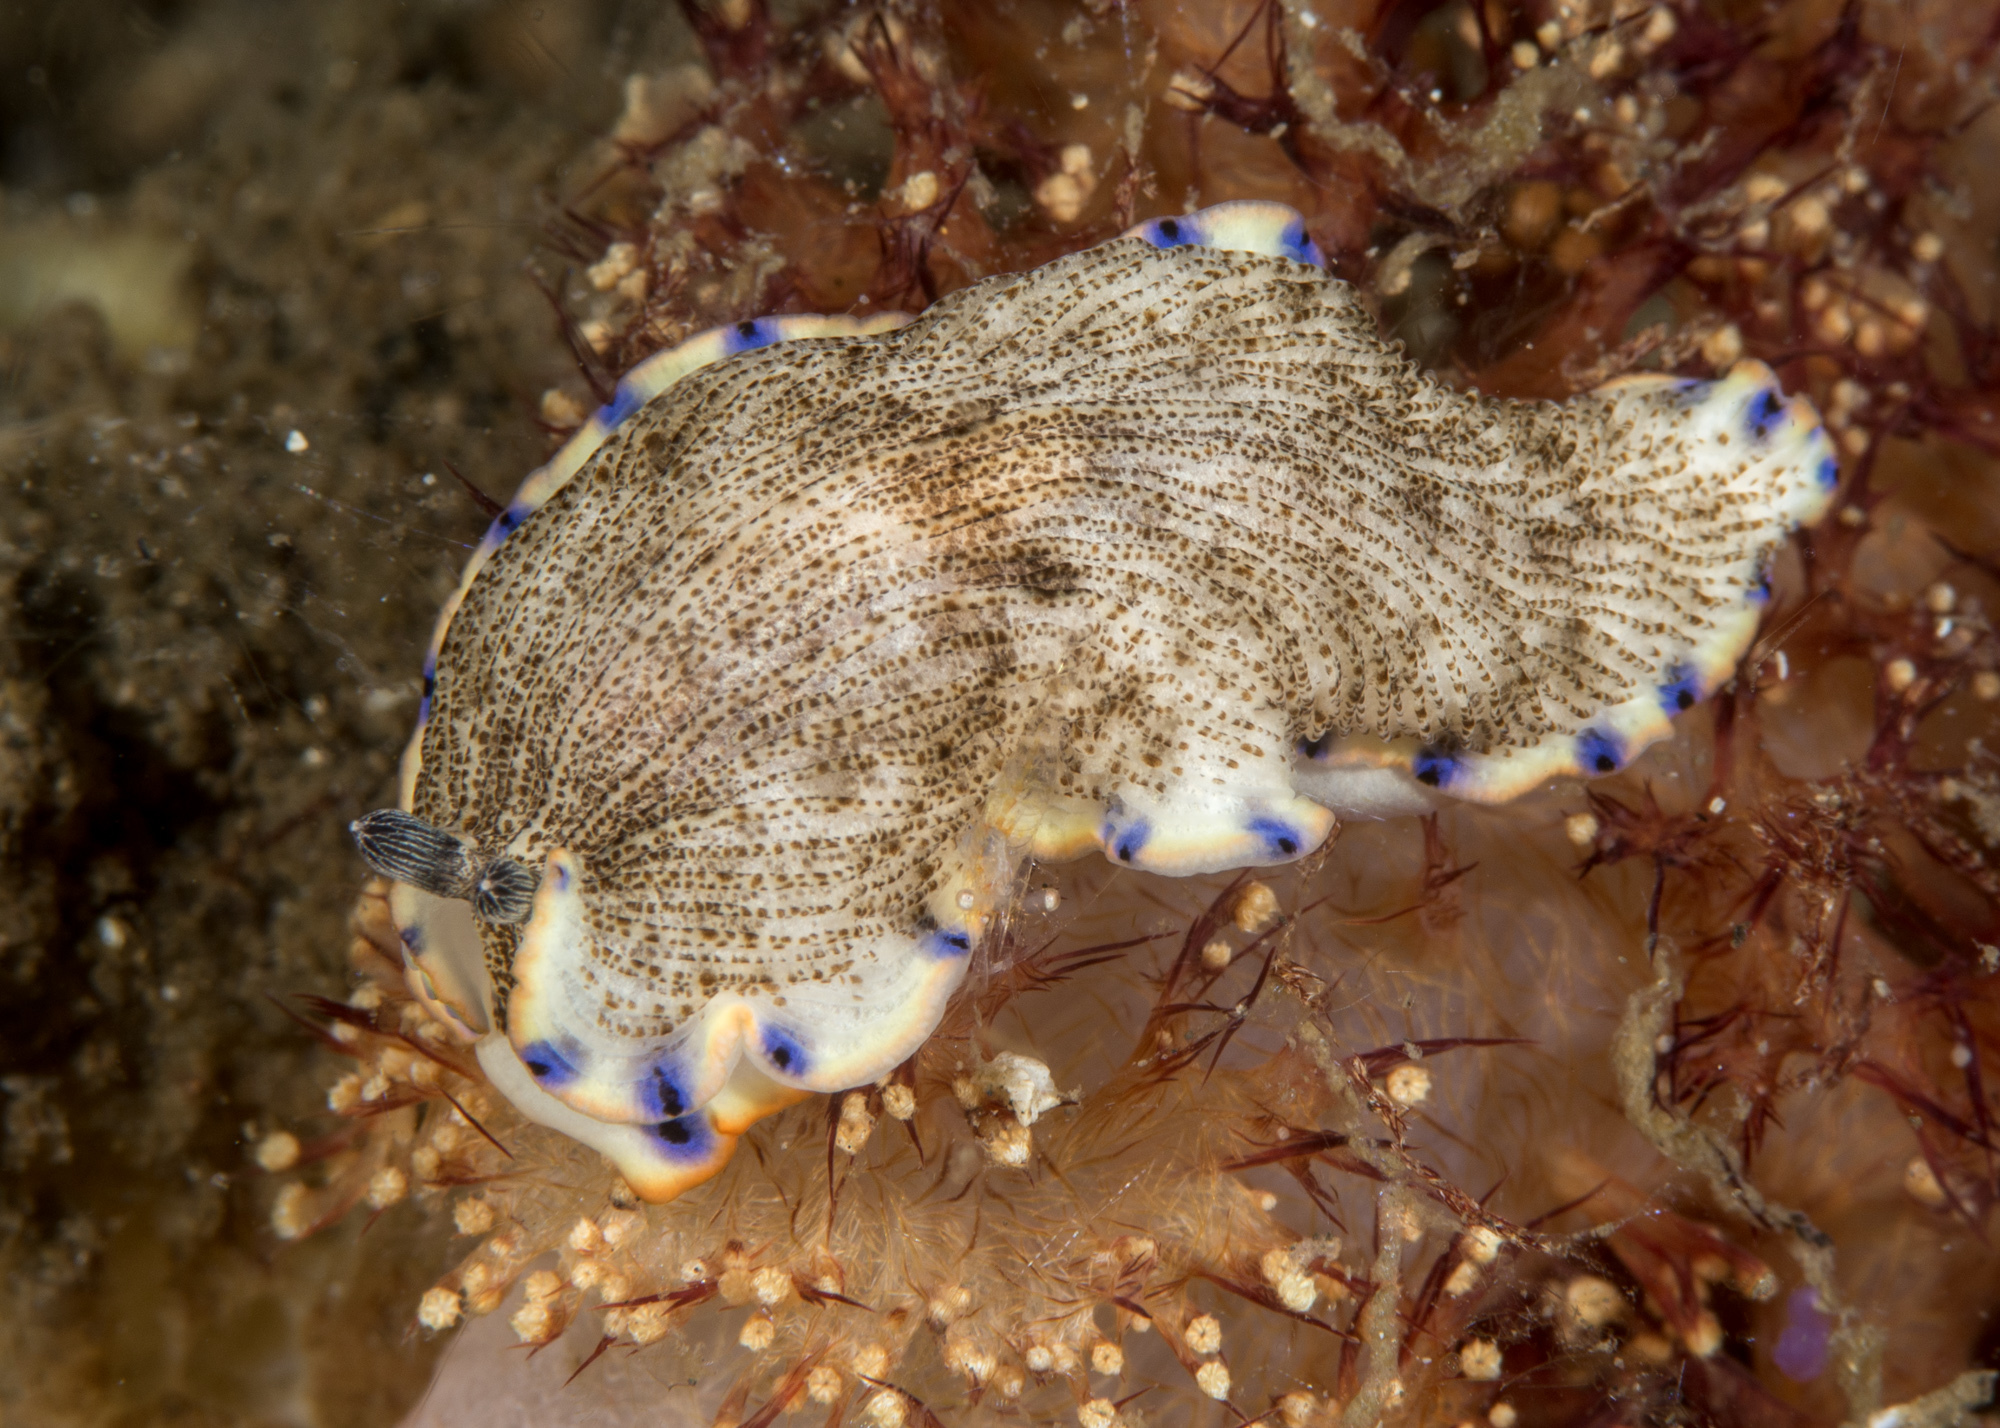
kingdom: Animalia
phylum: Mollusca
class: Gastropoda
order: Nudibranchia
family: Arminidae
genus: Dermatobranchus
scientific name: Dermatobranchus caeruleomaculatus
